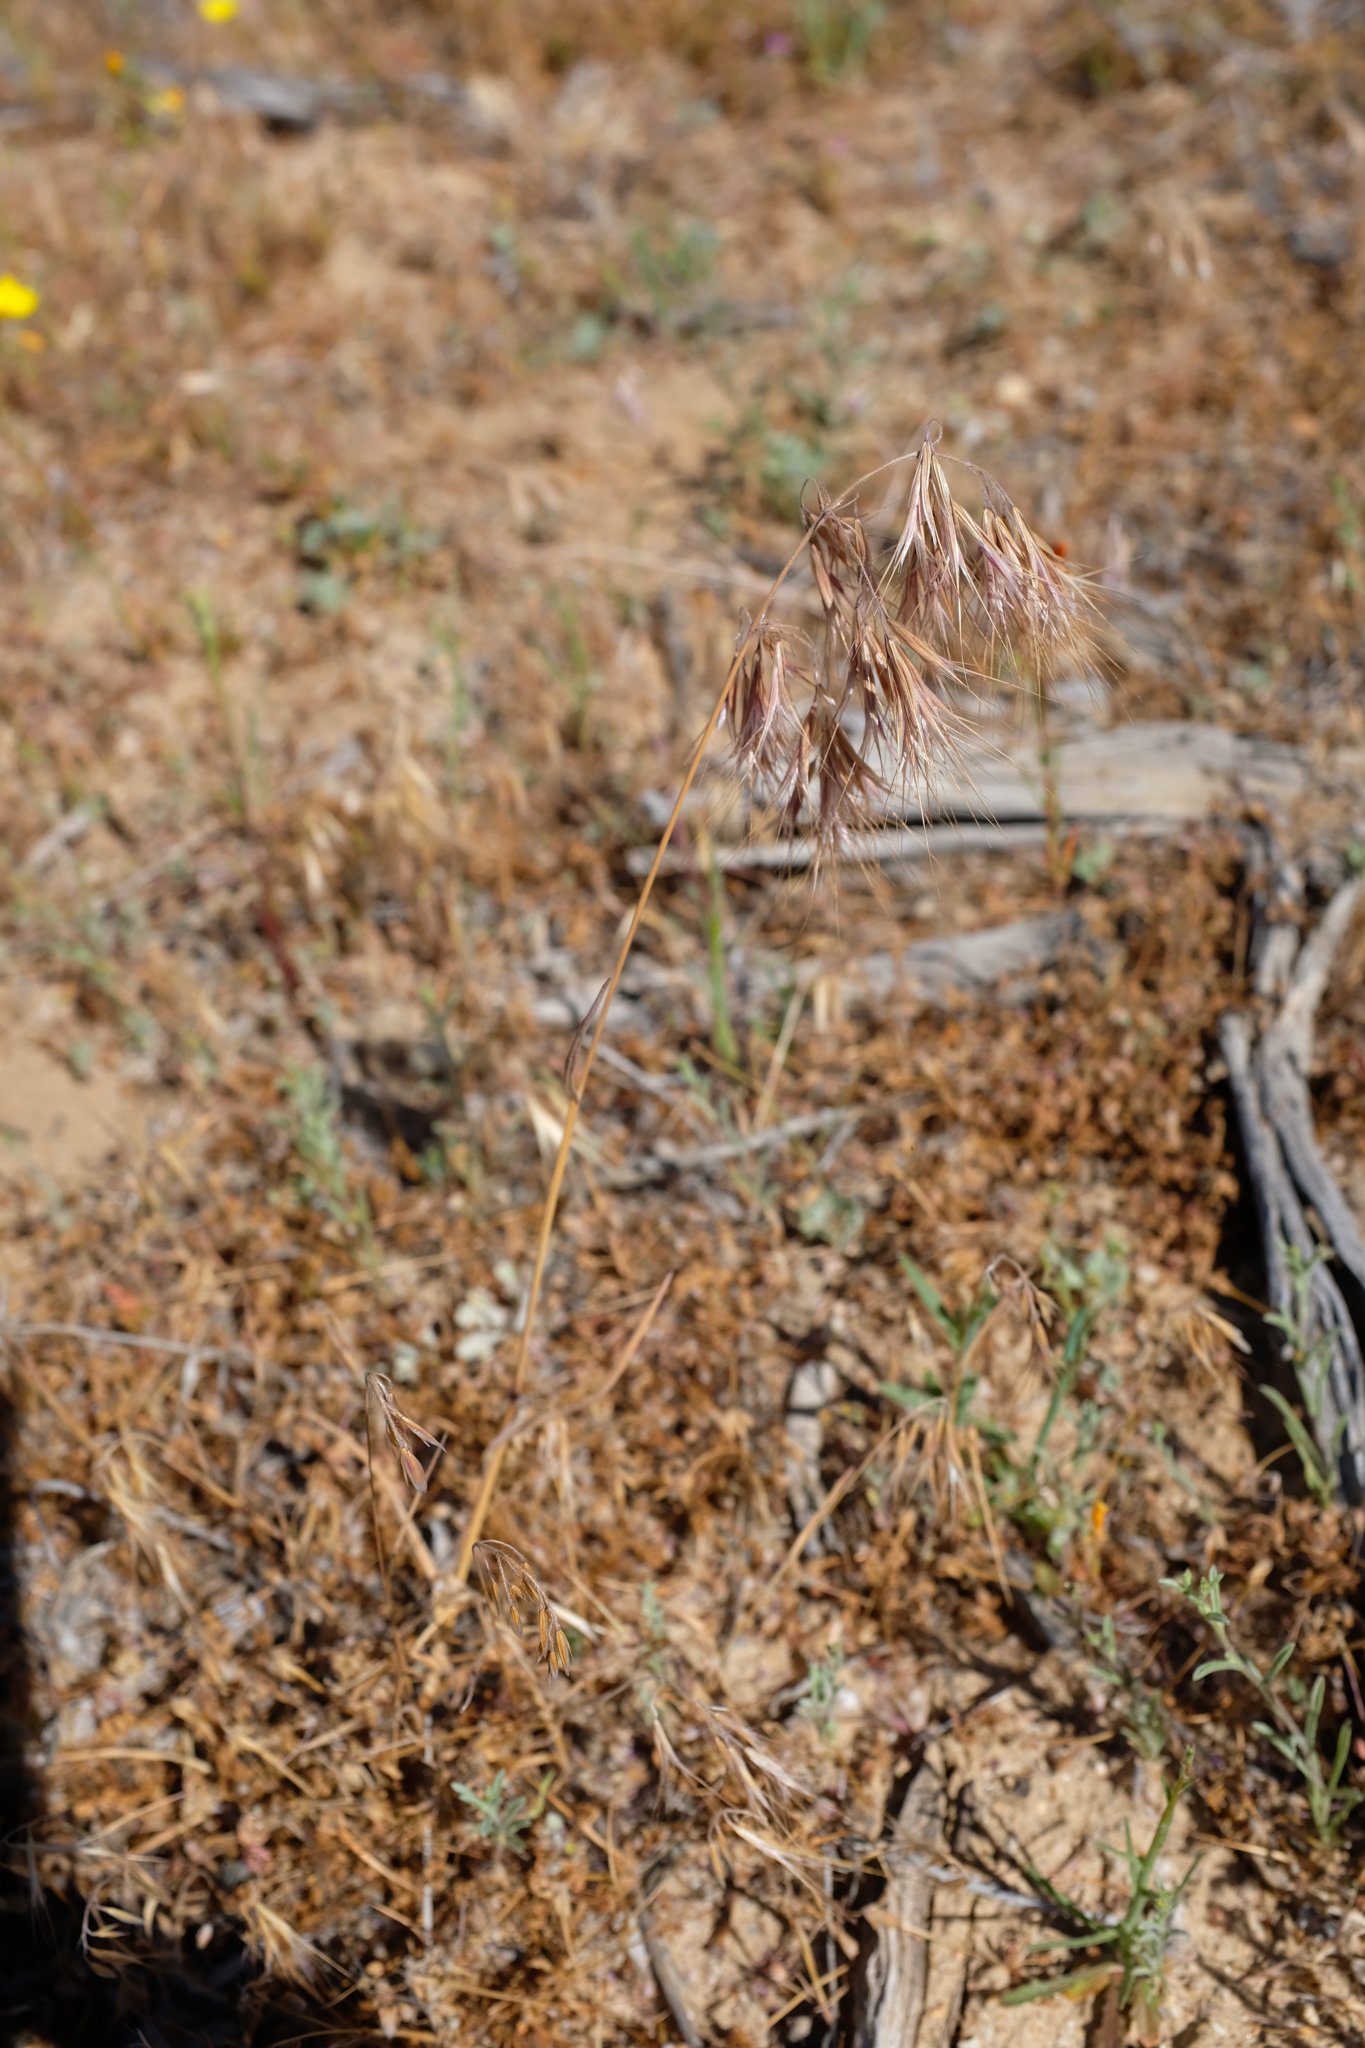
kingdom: Plantae
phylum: Tracheophyta
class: Liliopsida
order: Poales
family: Poaceae
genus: Bromus
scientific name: Bromus tectorum
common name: Cheatgrass
